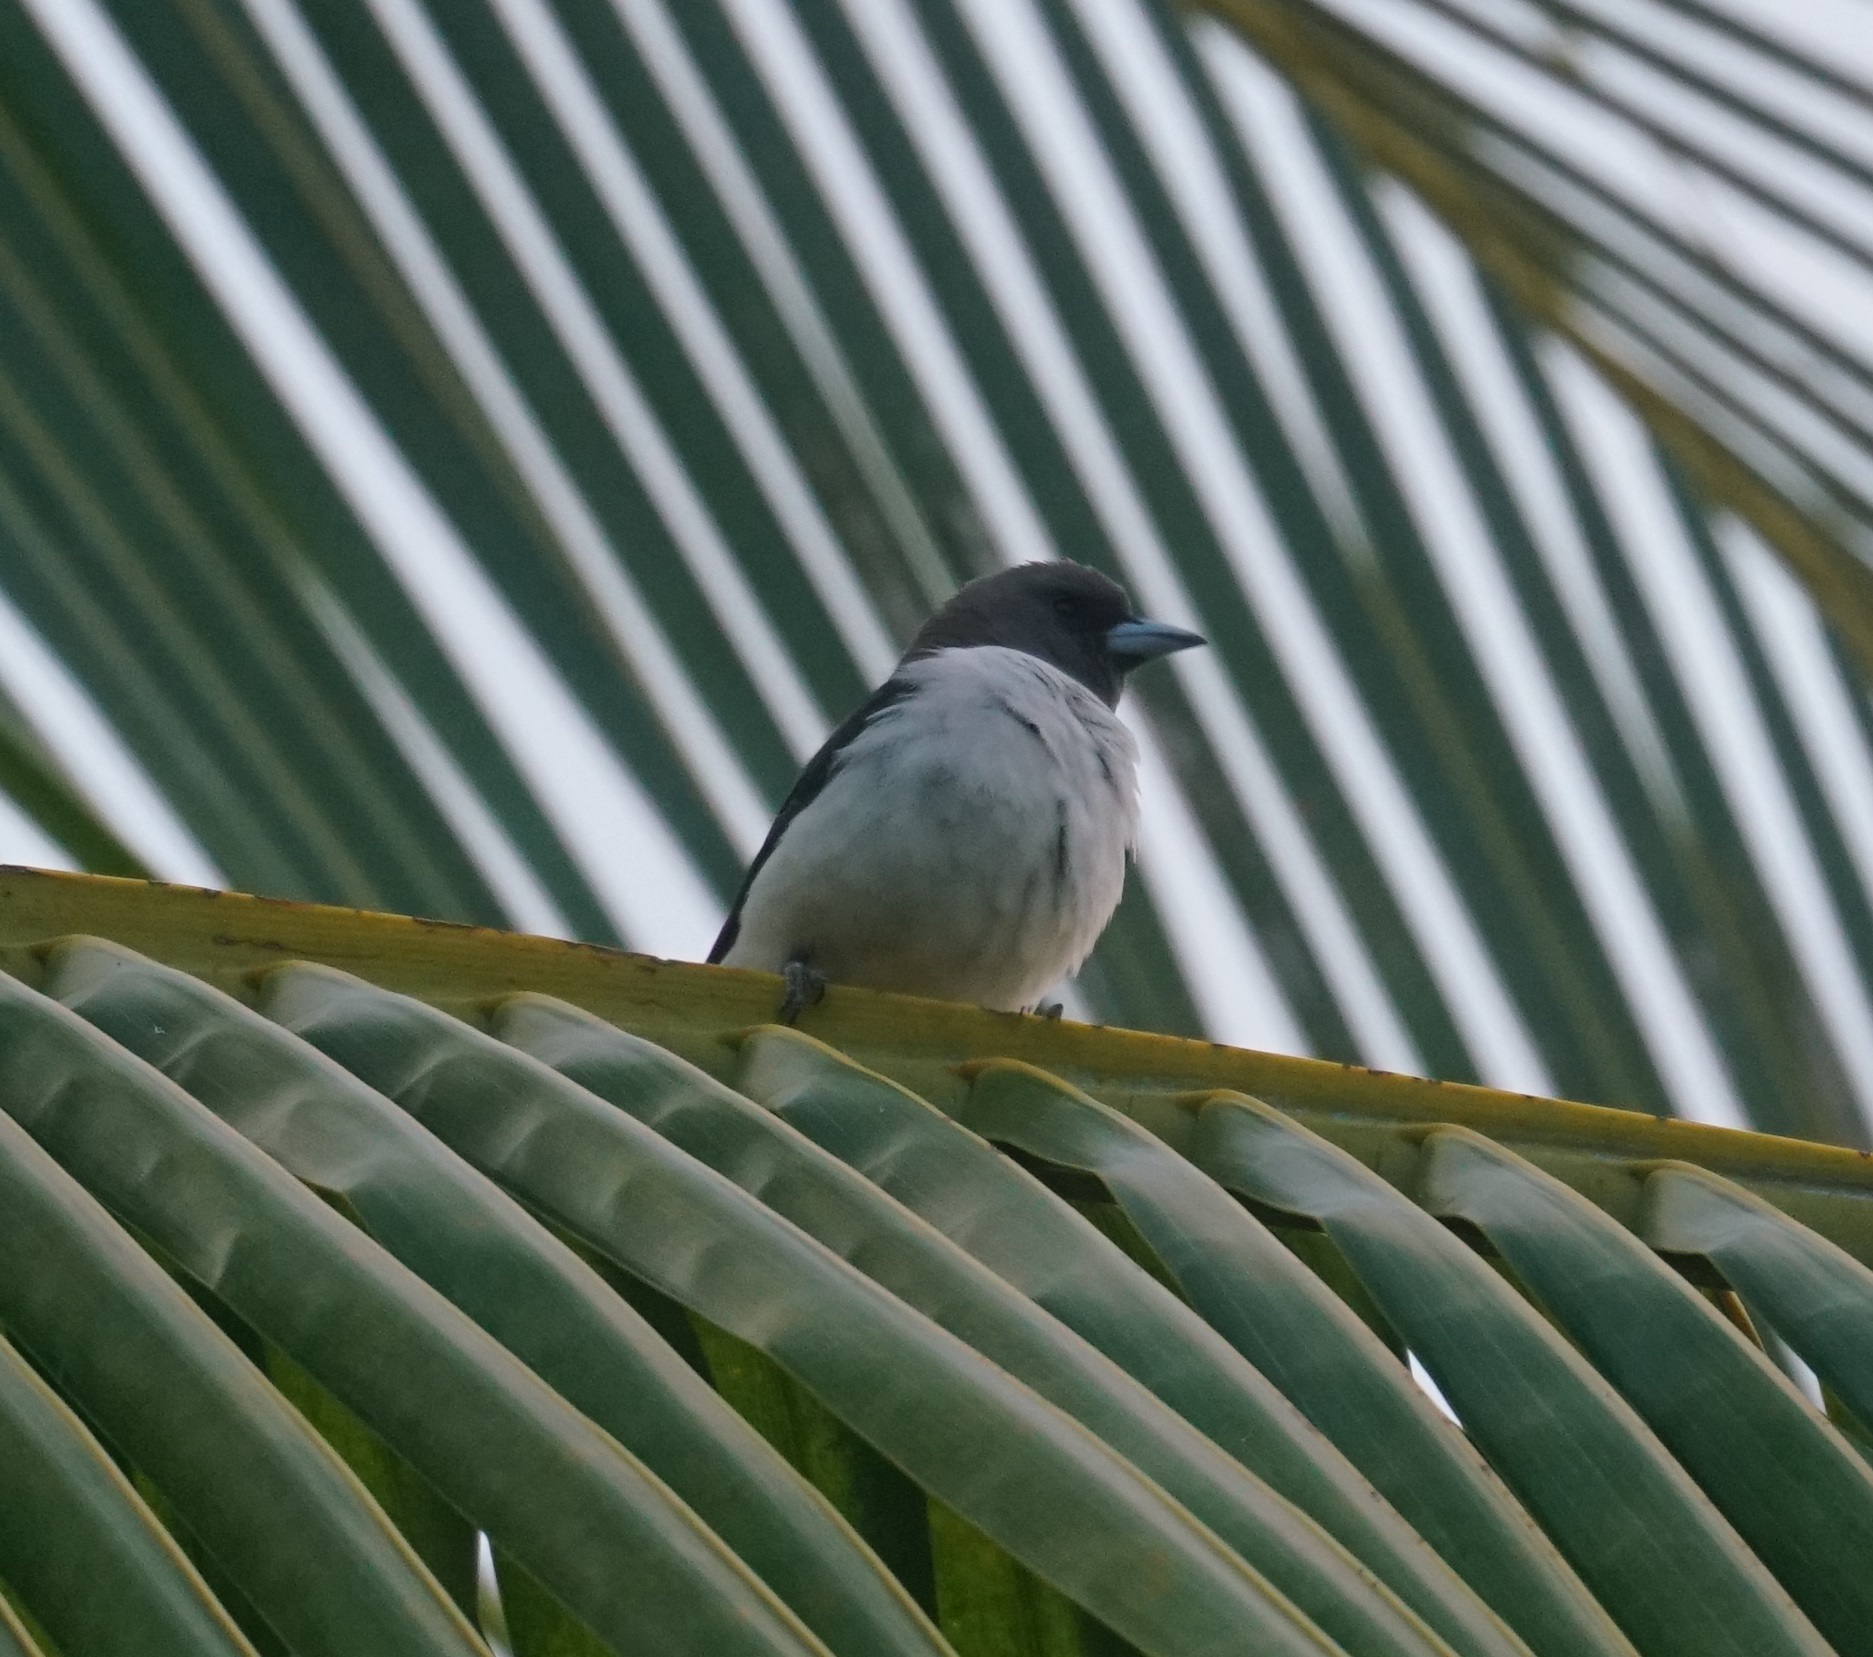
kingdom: Animalia
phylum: Chordata
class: Aves
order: Passeriformes
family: Artamidae
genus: Artamus
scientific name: Artamus leucoryn
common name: White-breasted woodswallow
